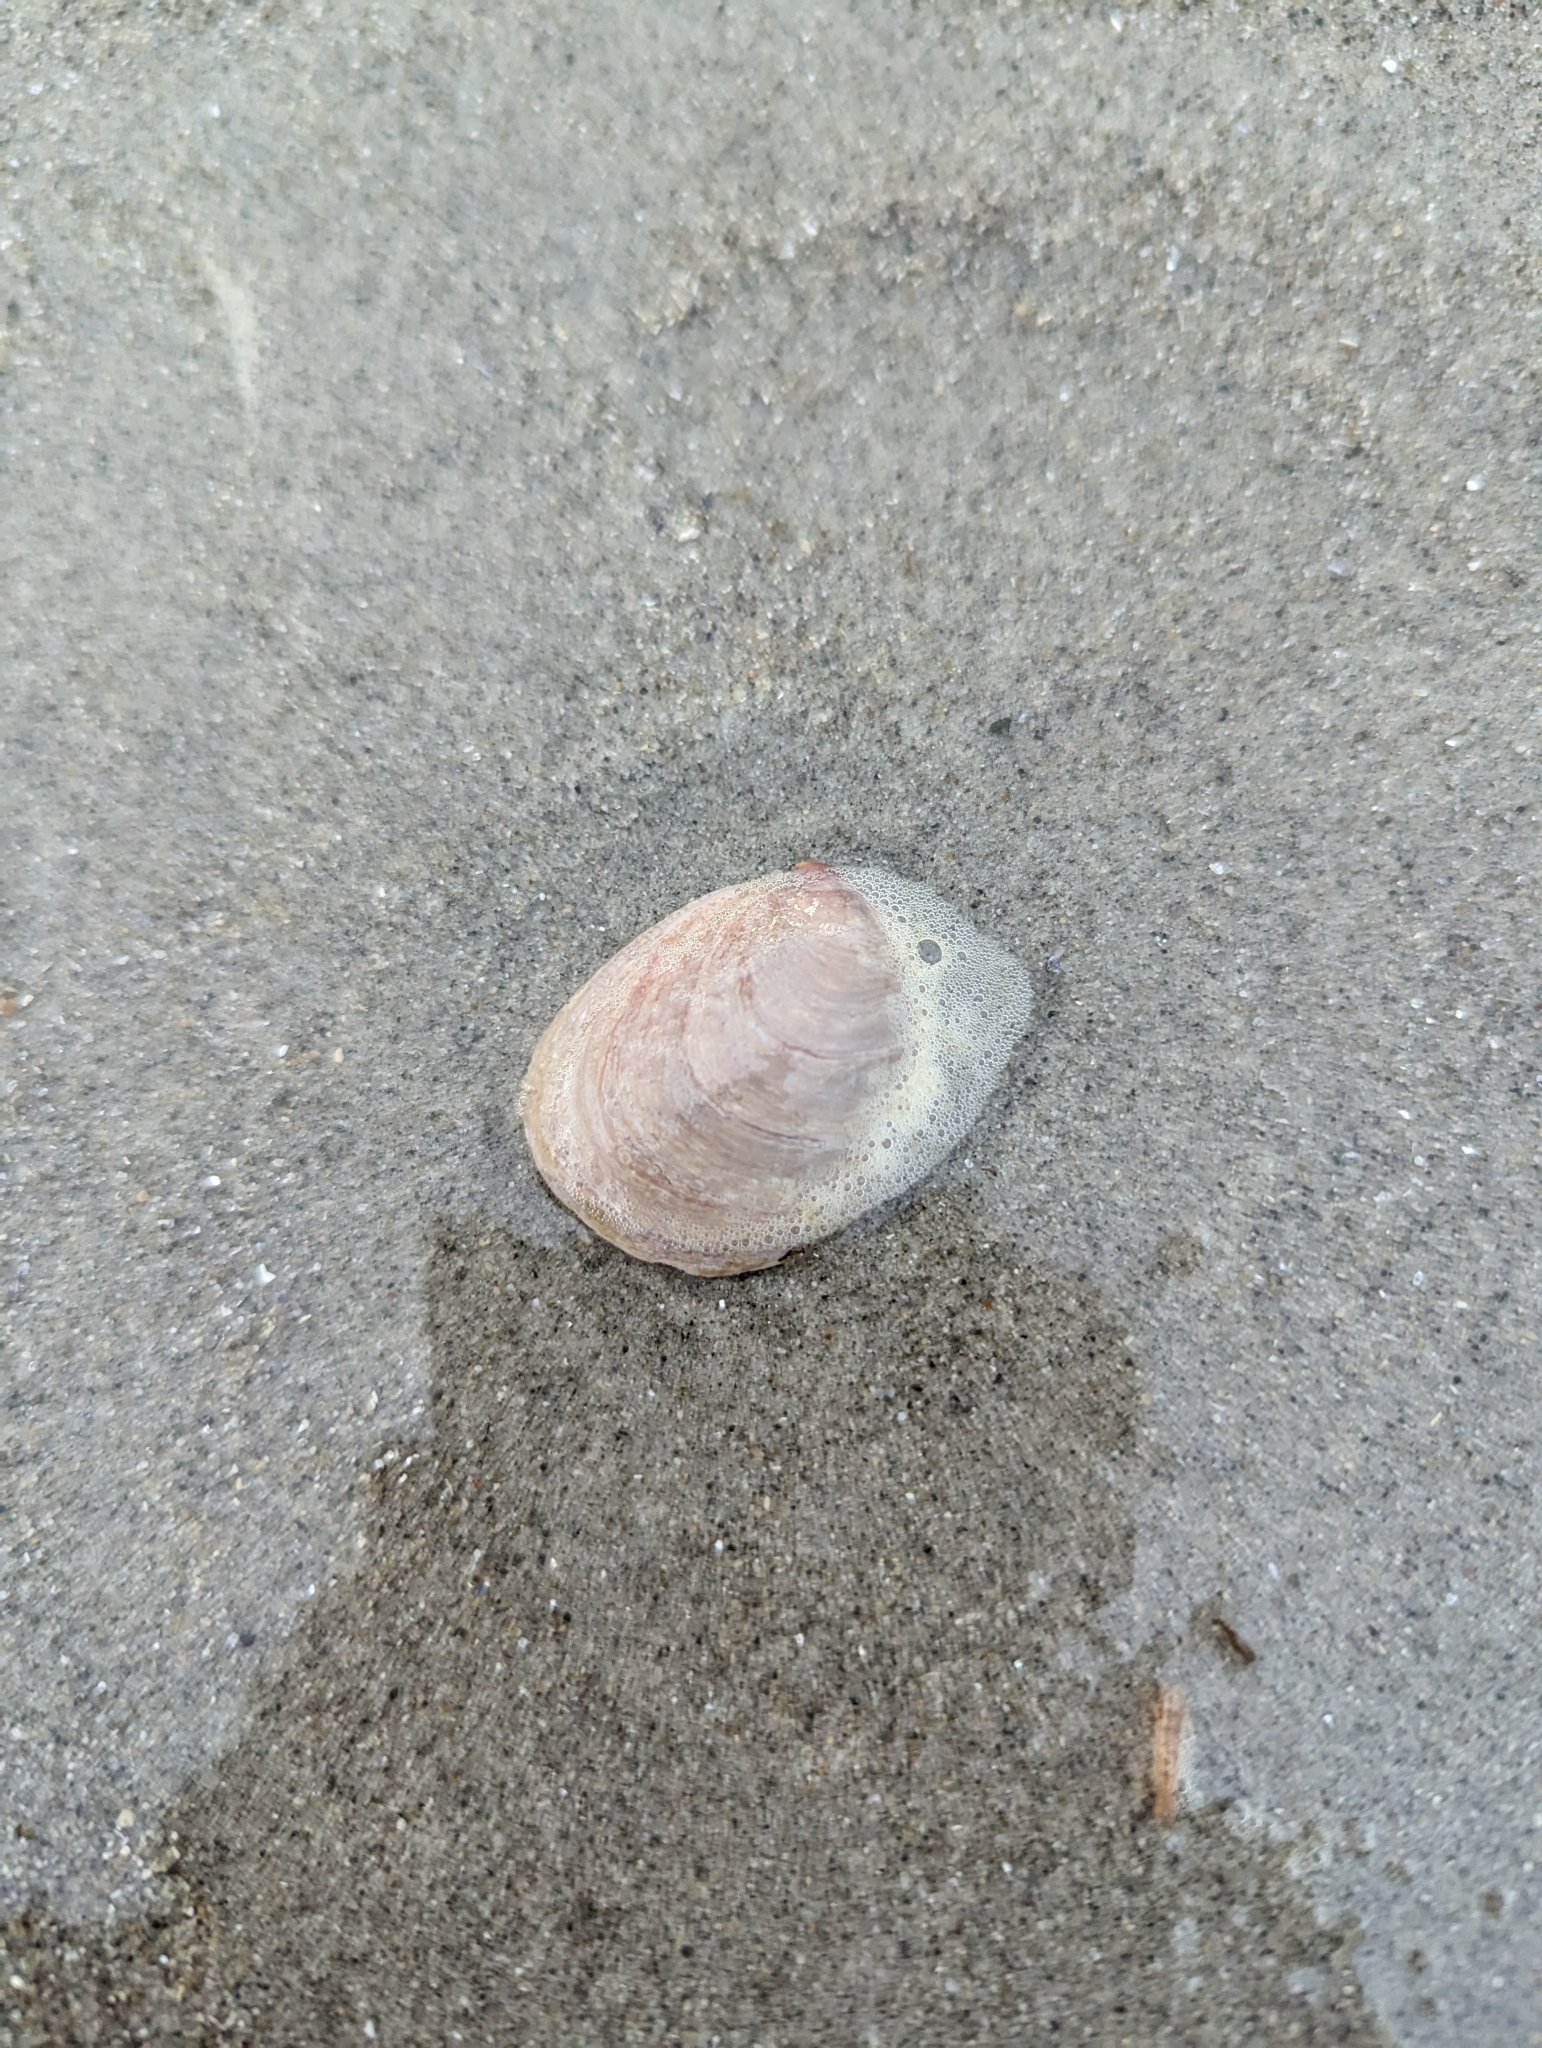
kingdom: Animalia
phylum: Mollusca
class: Gastropoda
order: Littorinimorpha
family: Calyptraeidae
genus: Crepidula
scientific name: Crepidula fornicata
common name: Slipper limpet
